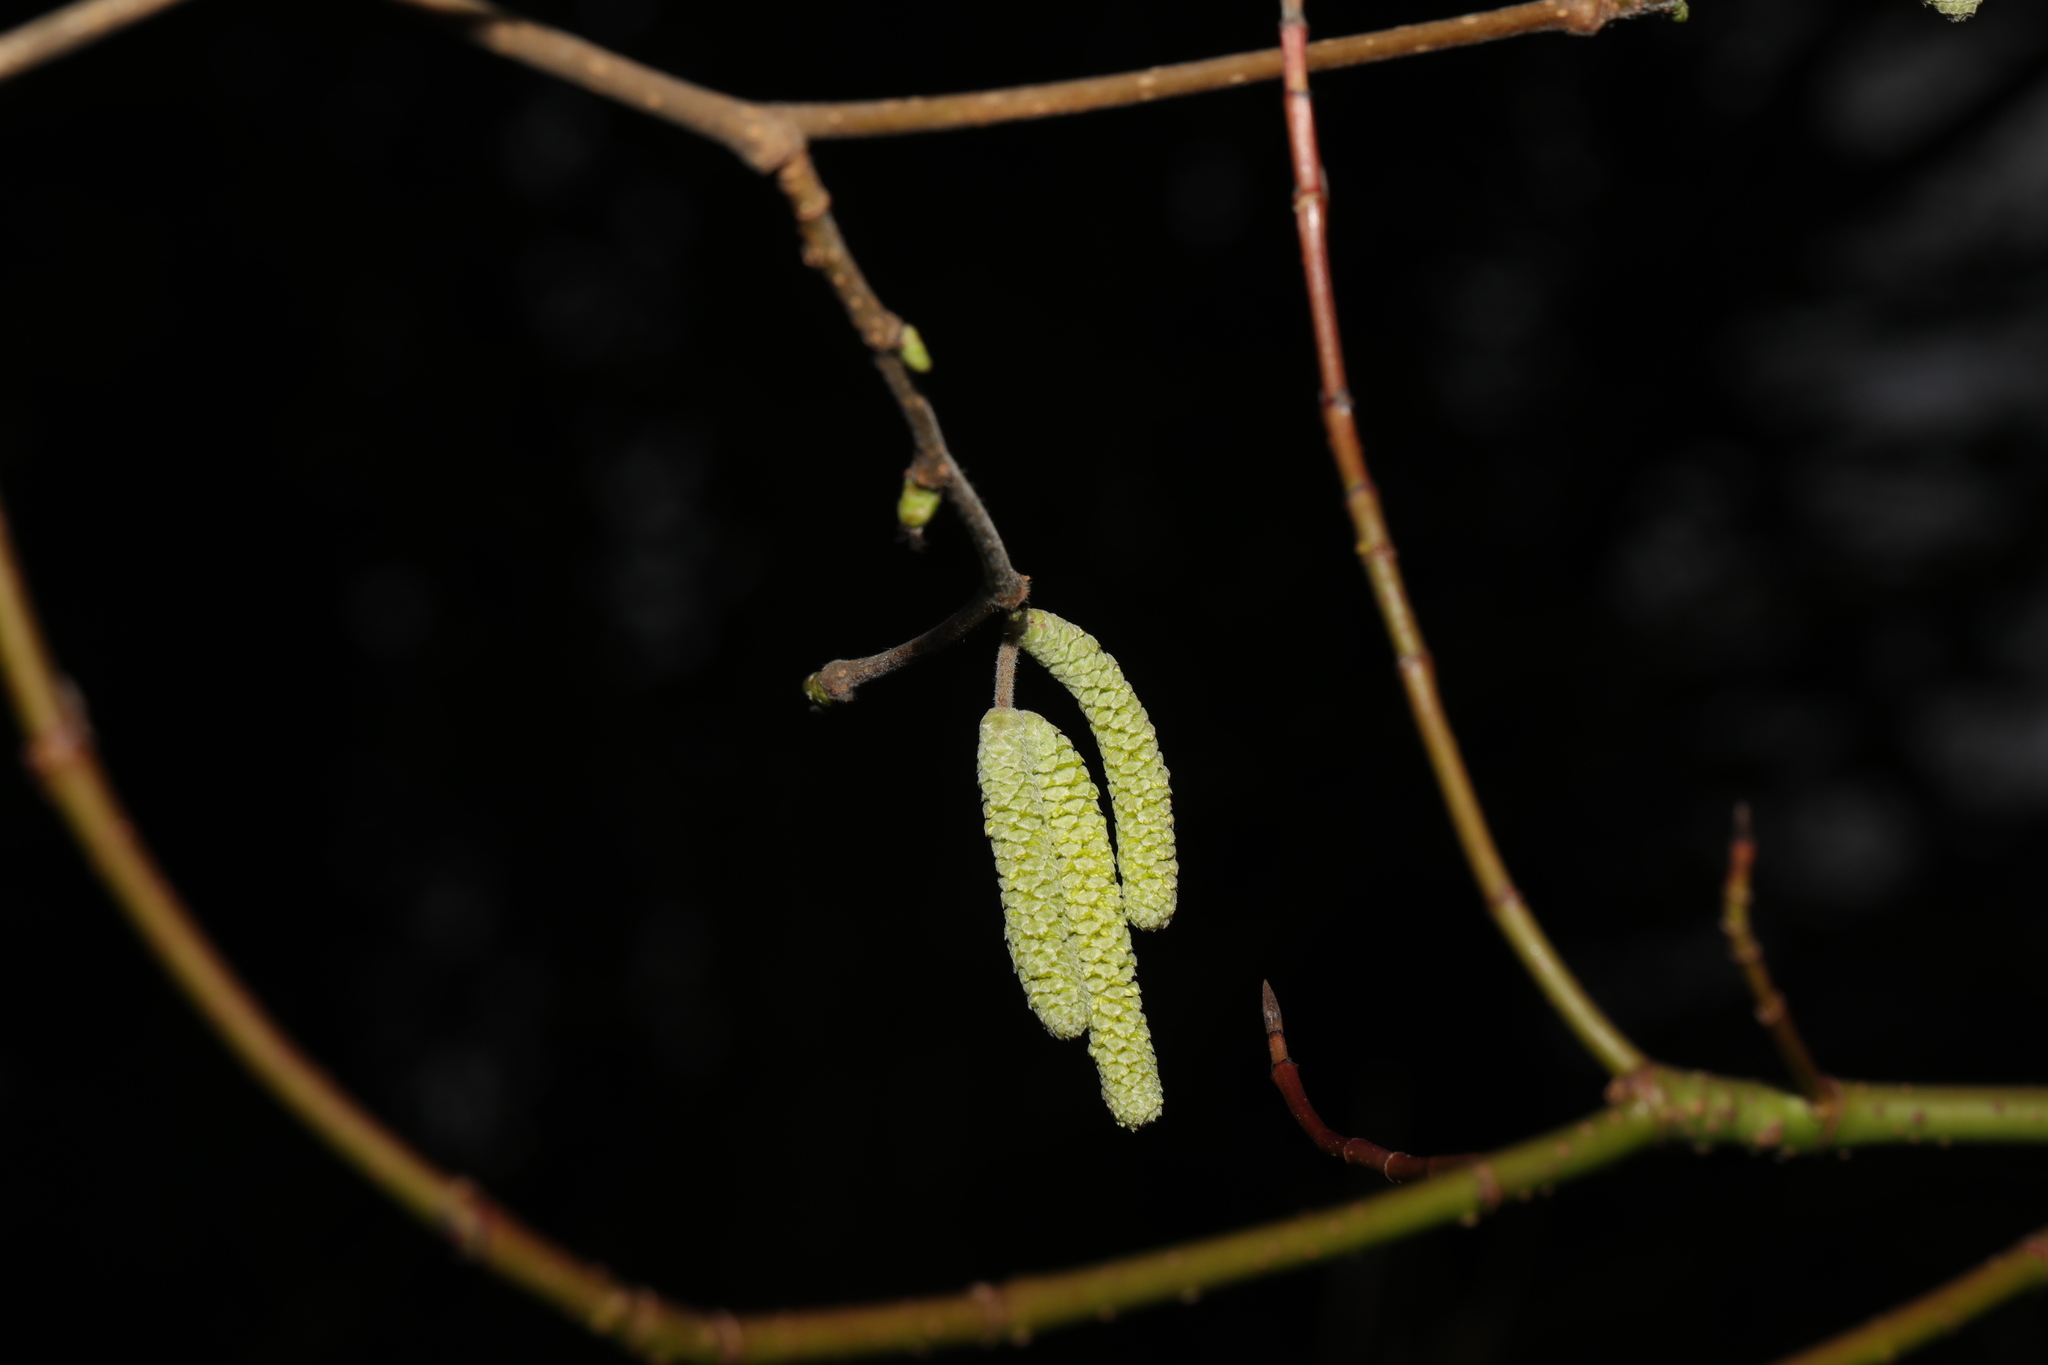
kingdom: Plantae
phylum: Tracheophyta
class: Magnoliopsida
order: Fagales
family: Betulaceae
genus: Corylus
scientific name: Corylus avellana
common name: European hazel
